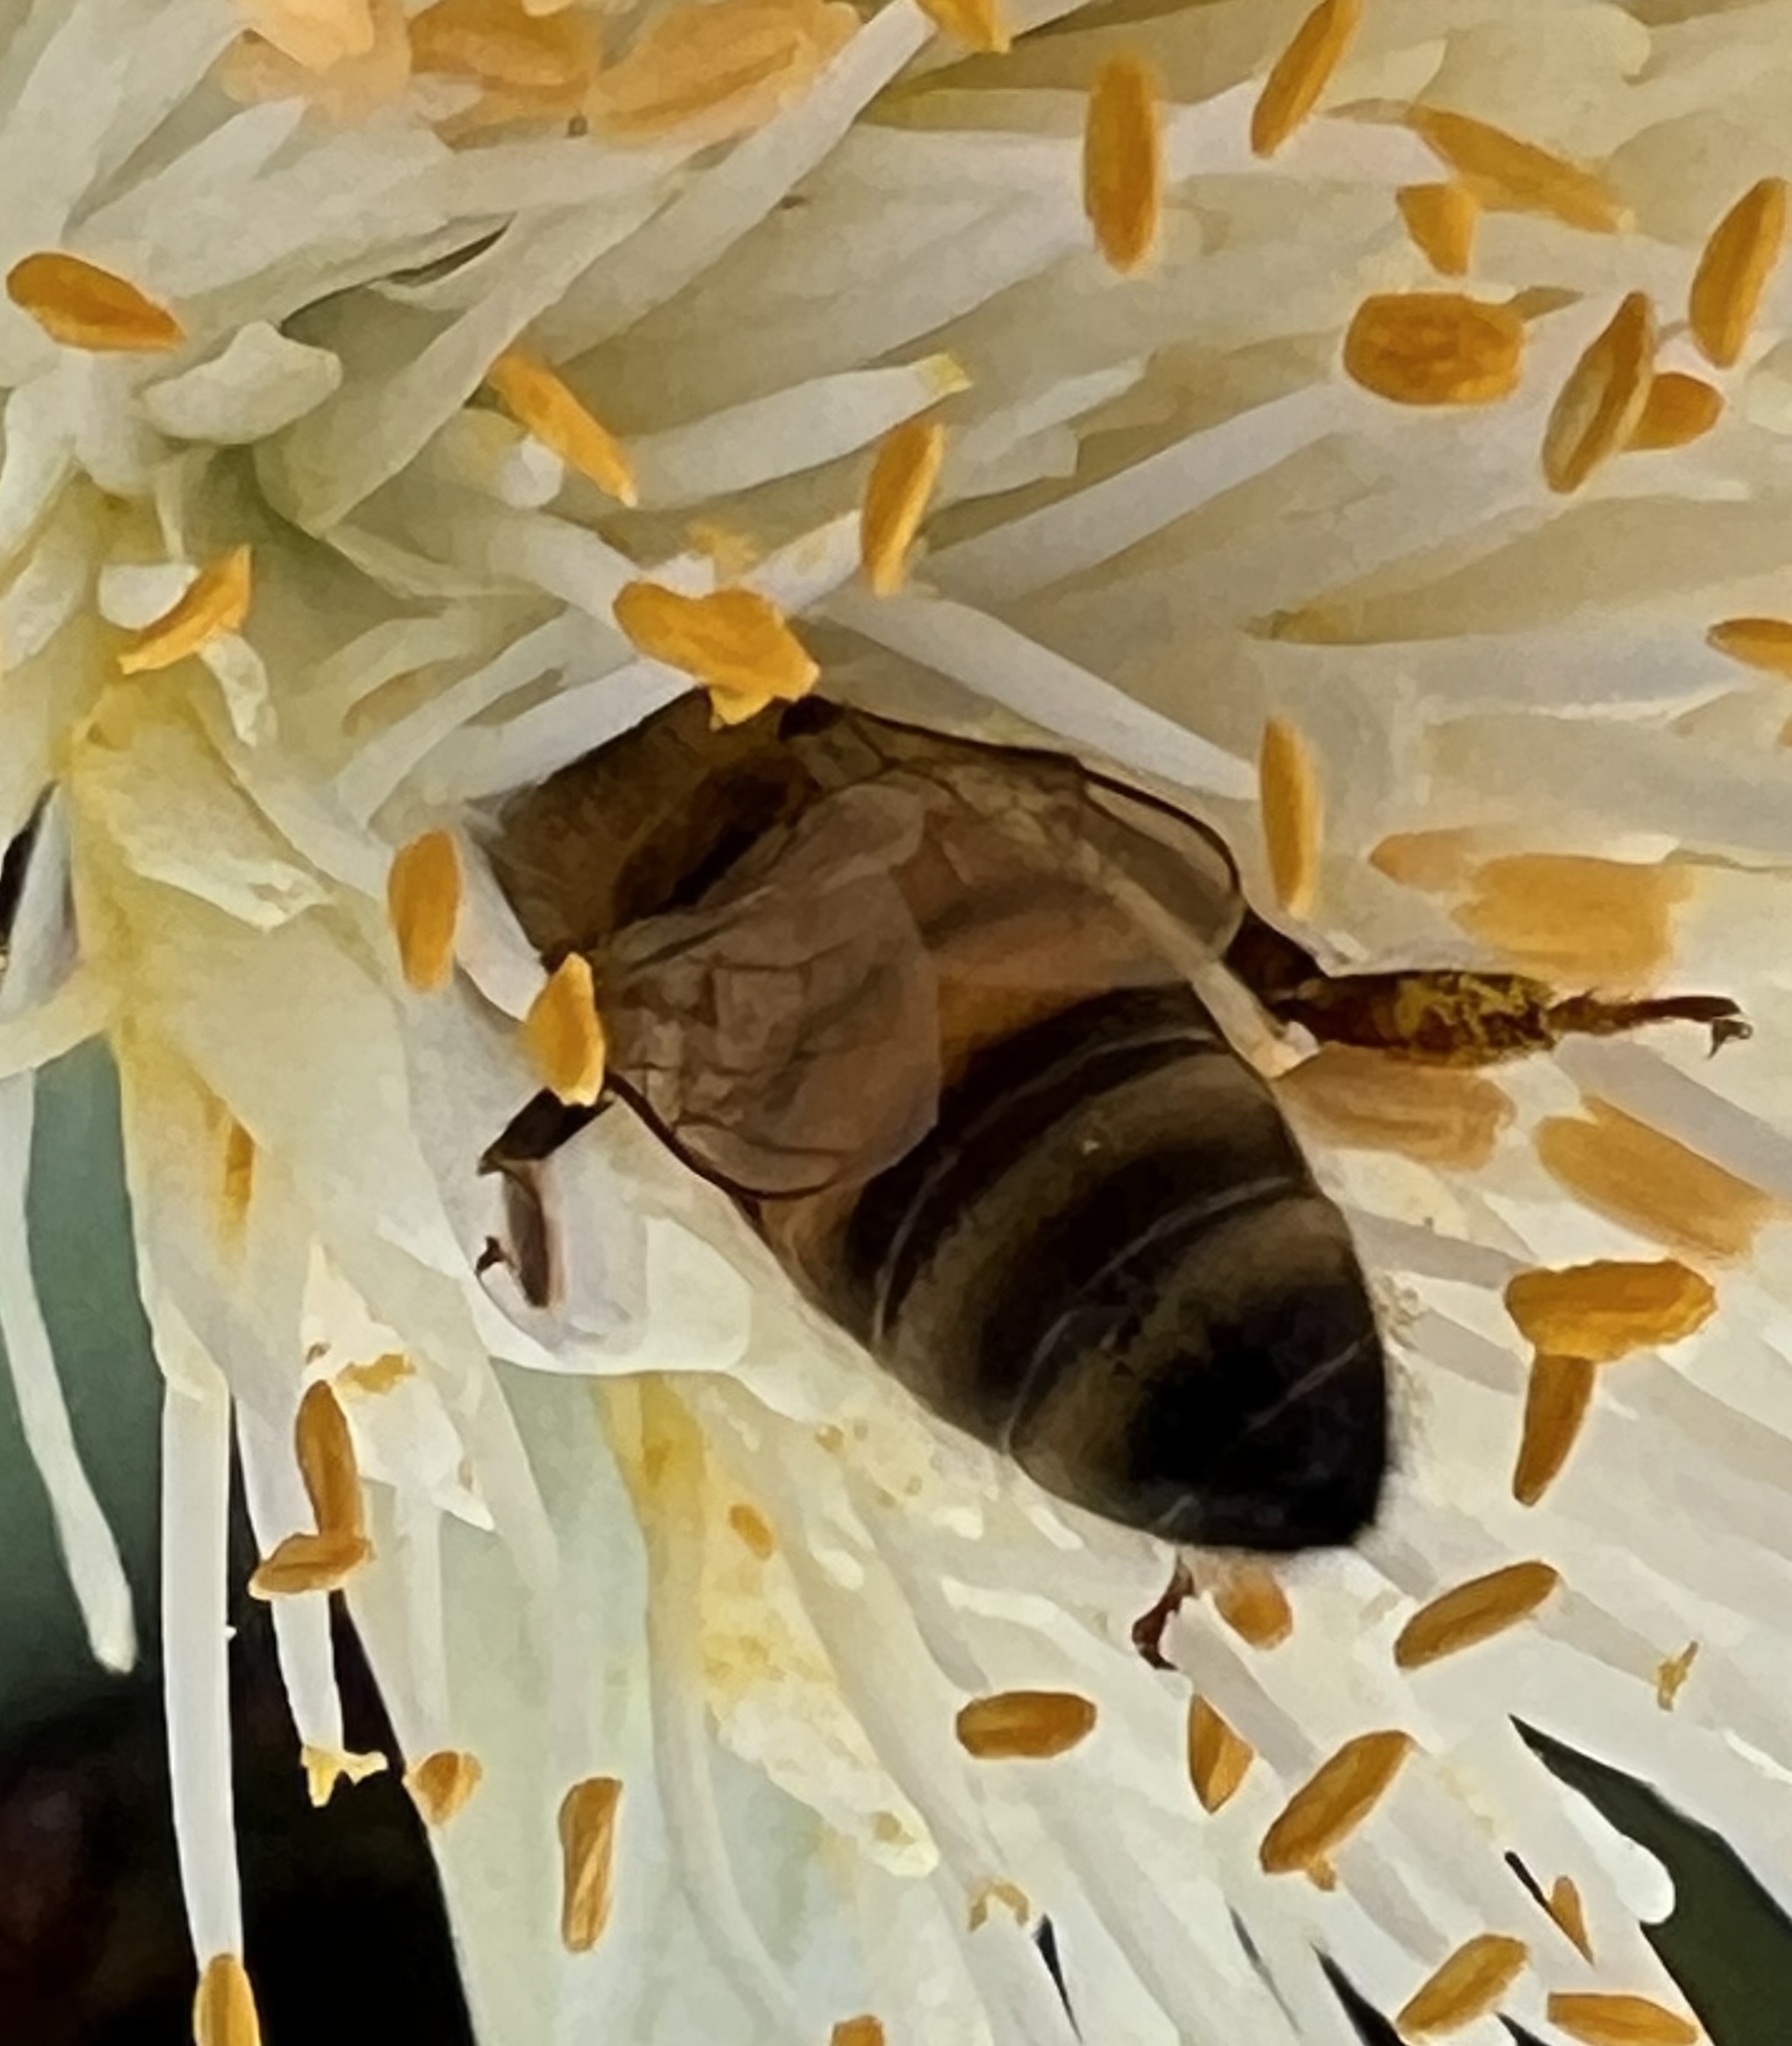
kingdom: Animalia
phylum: Arthropoda
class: Insecta
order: Hymenoptera
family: Apidae
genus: Apis
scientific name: Apis mellifera
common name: Honey bee
